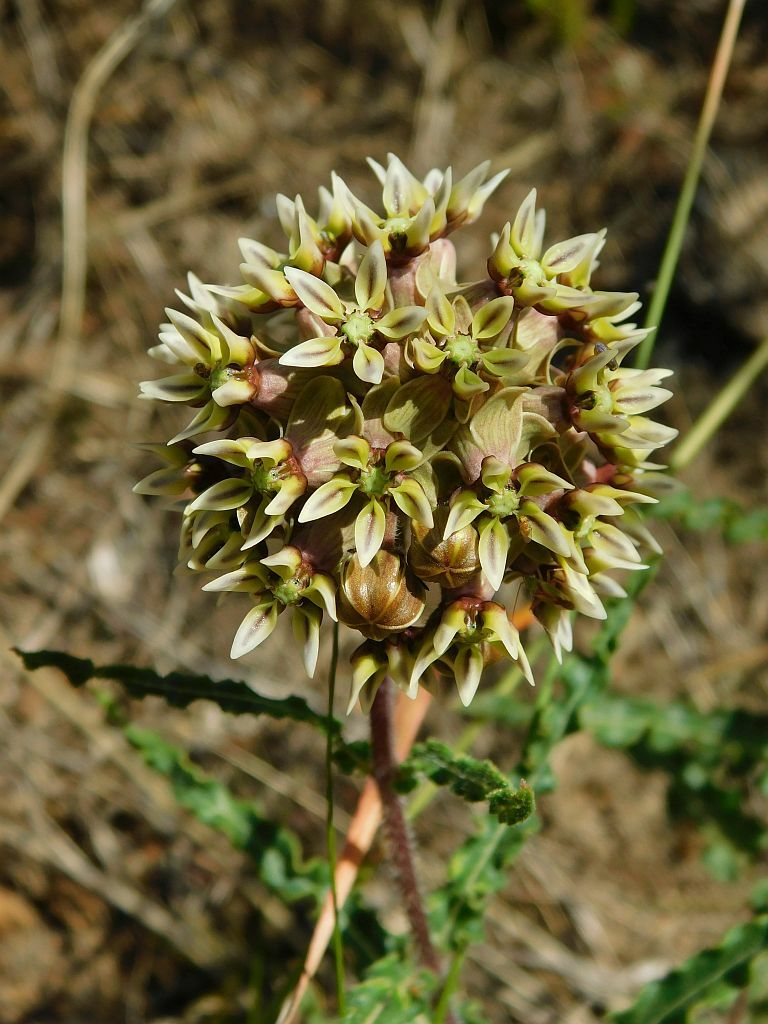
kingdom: Plantae
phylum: Tracheophyta
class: Magnoliopsida
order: Gentianales
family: Apocynaceae
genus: Asclepias
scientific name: Asclepias crispa
